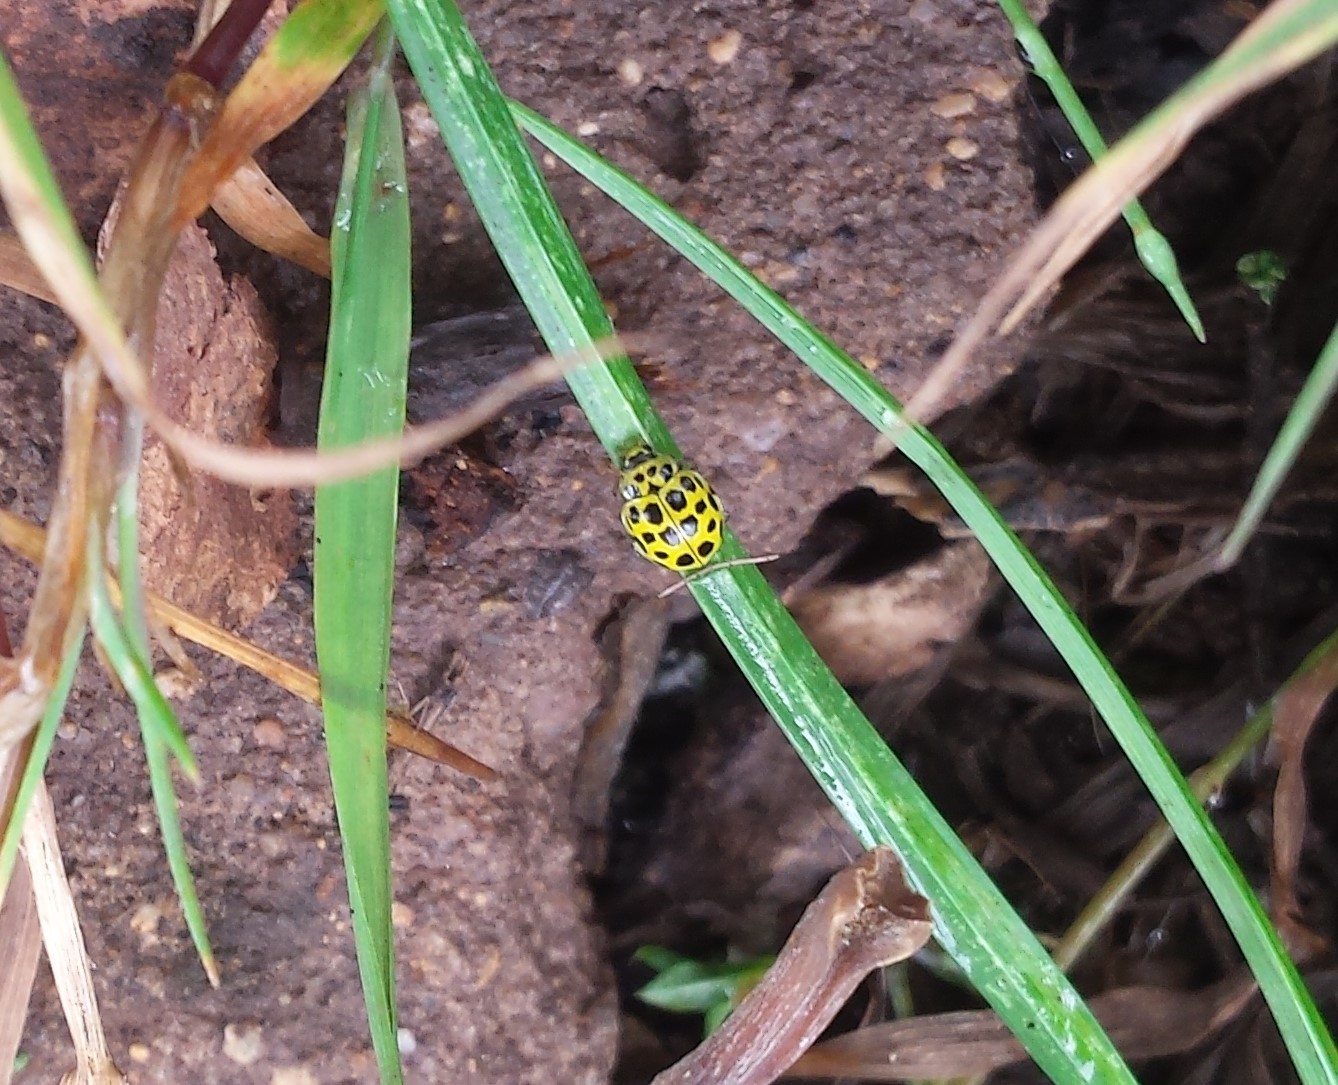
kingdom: Animalia
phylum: Arthropoda
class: Insecta
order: Coleoptera
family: Coccinellidae
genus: Psyllobora
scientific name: Psyllobora vigintiduopunctata
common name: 22-spot ladybird
